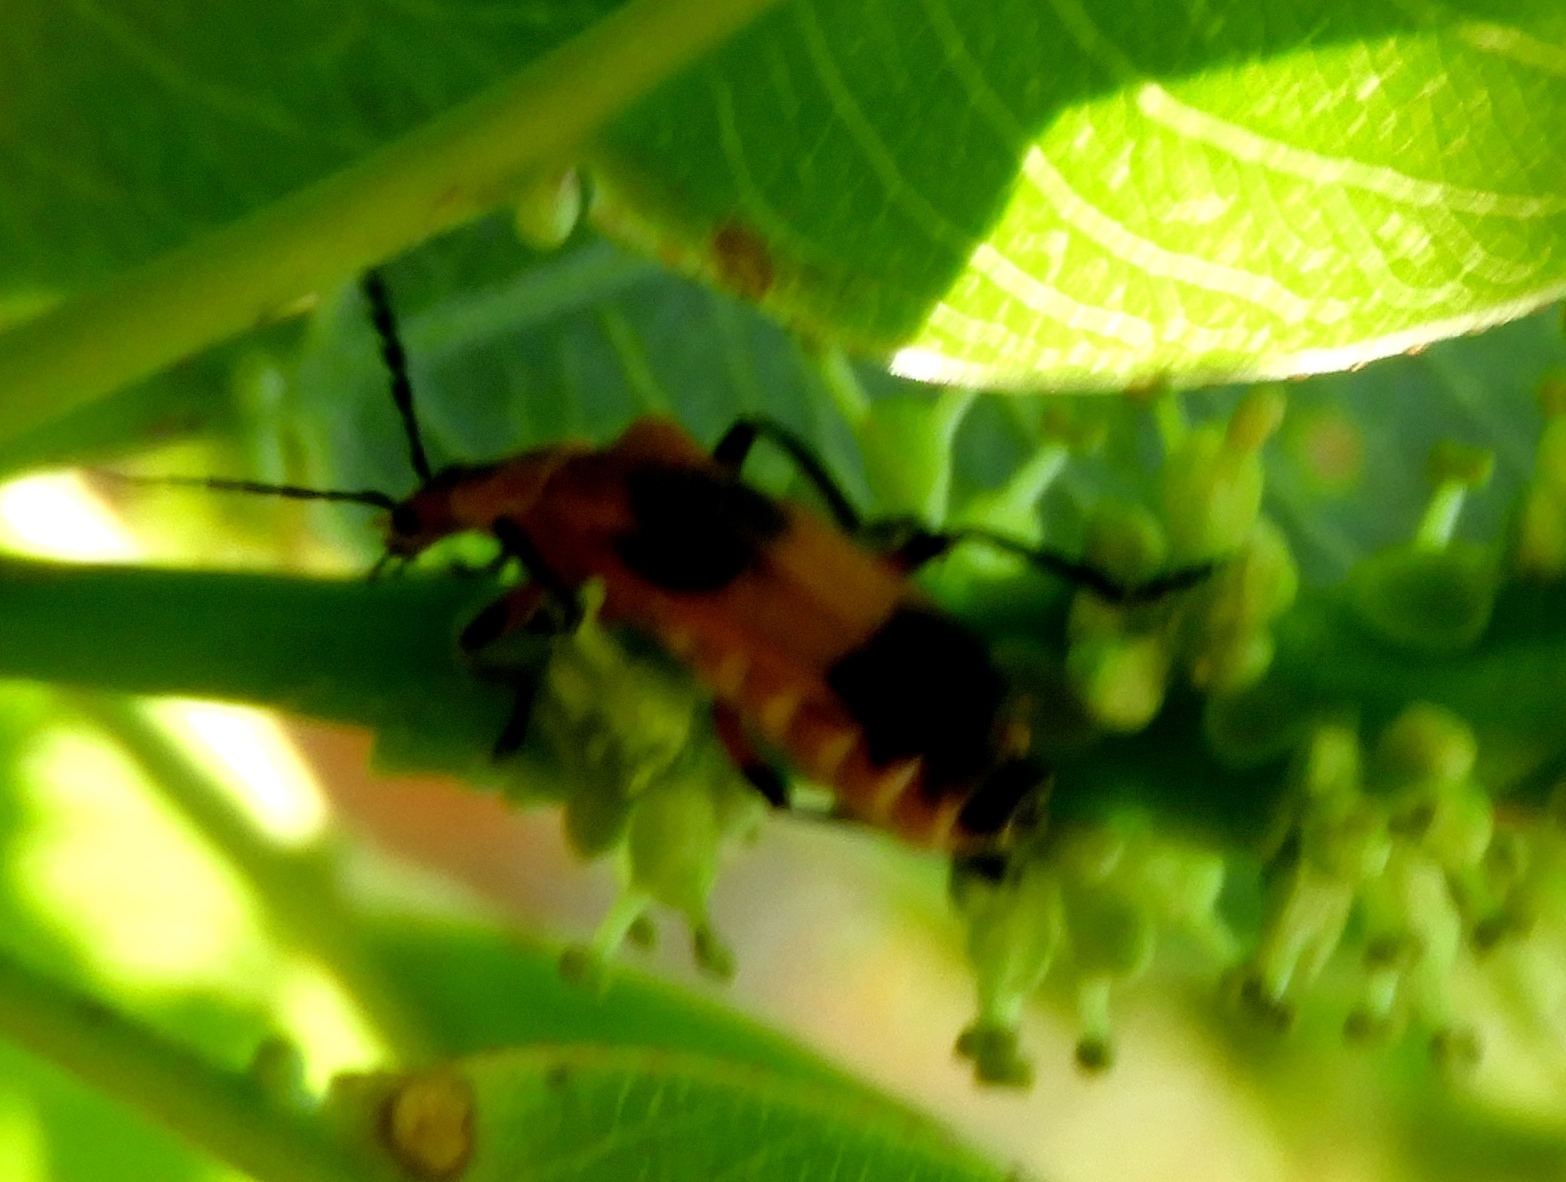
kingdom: Animalia
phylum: Arthropoda
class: Insecta
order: Coleoptera
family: Cantharidae
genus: Daiphron
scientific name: Daiphron proteum
